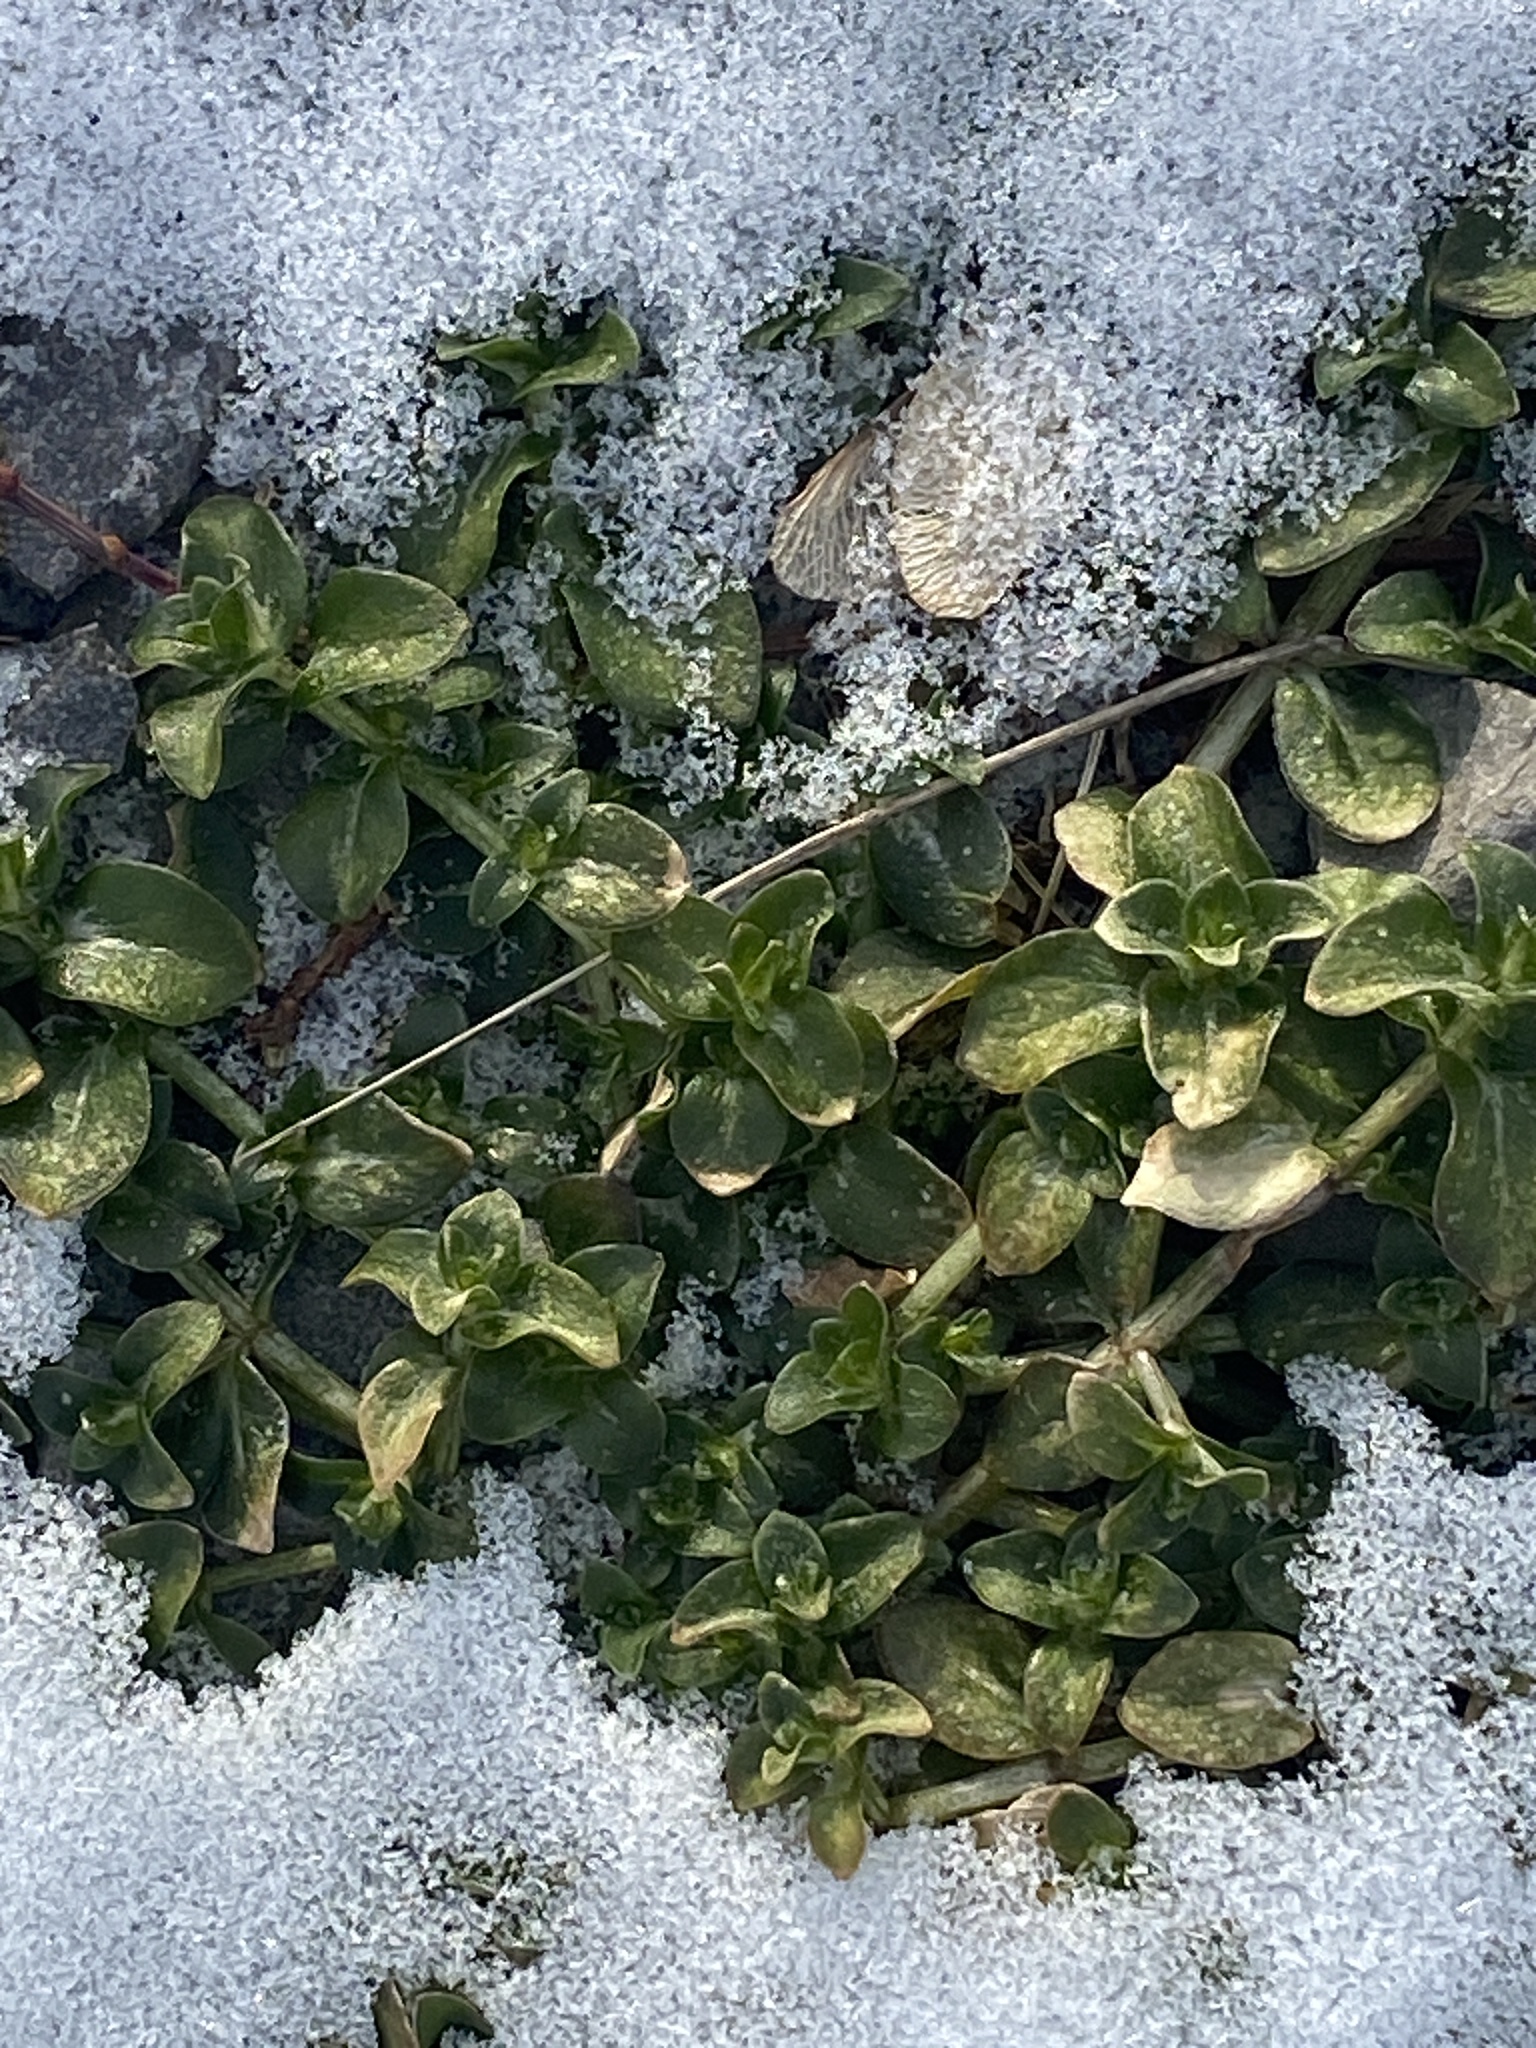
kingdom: Plantae
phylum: Tracheophyta
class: Magnoliopsida
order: Lamiales
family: Plantaginaceae
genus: Veronica
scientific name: Veronica serpyllifolia
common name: Thyme-leaved speedwell
